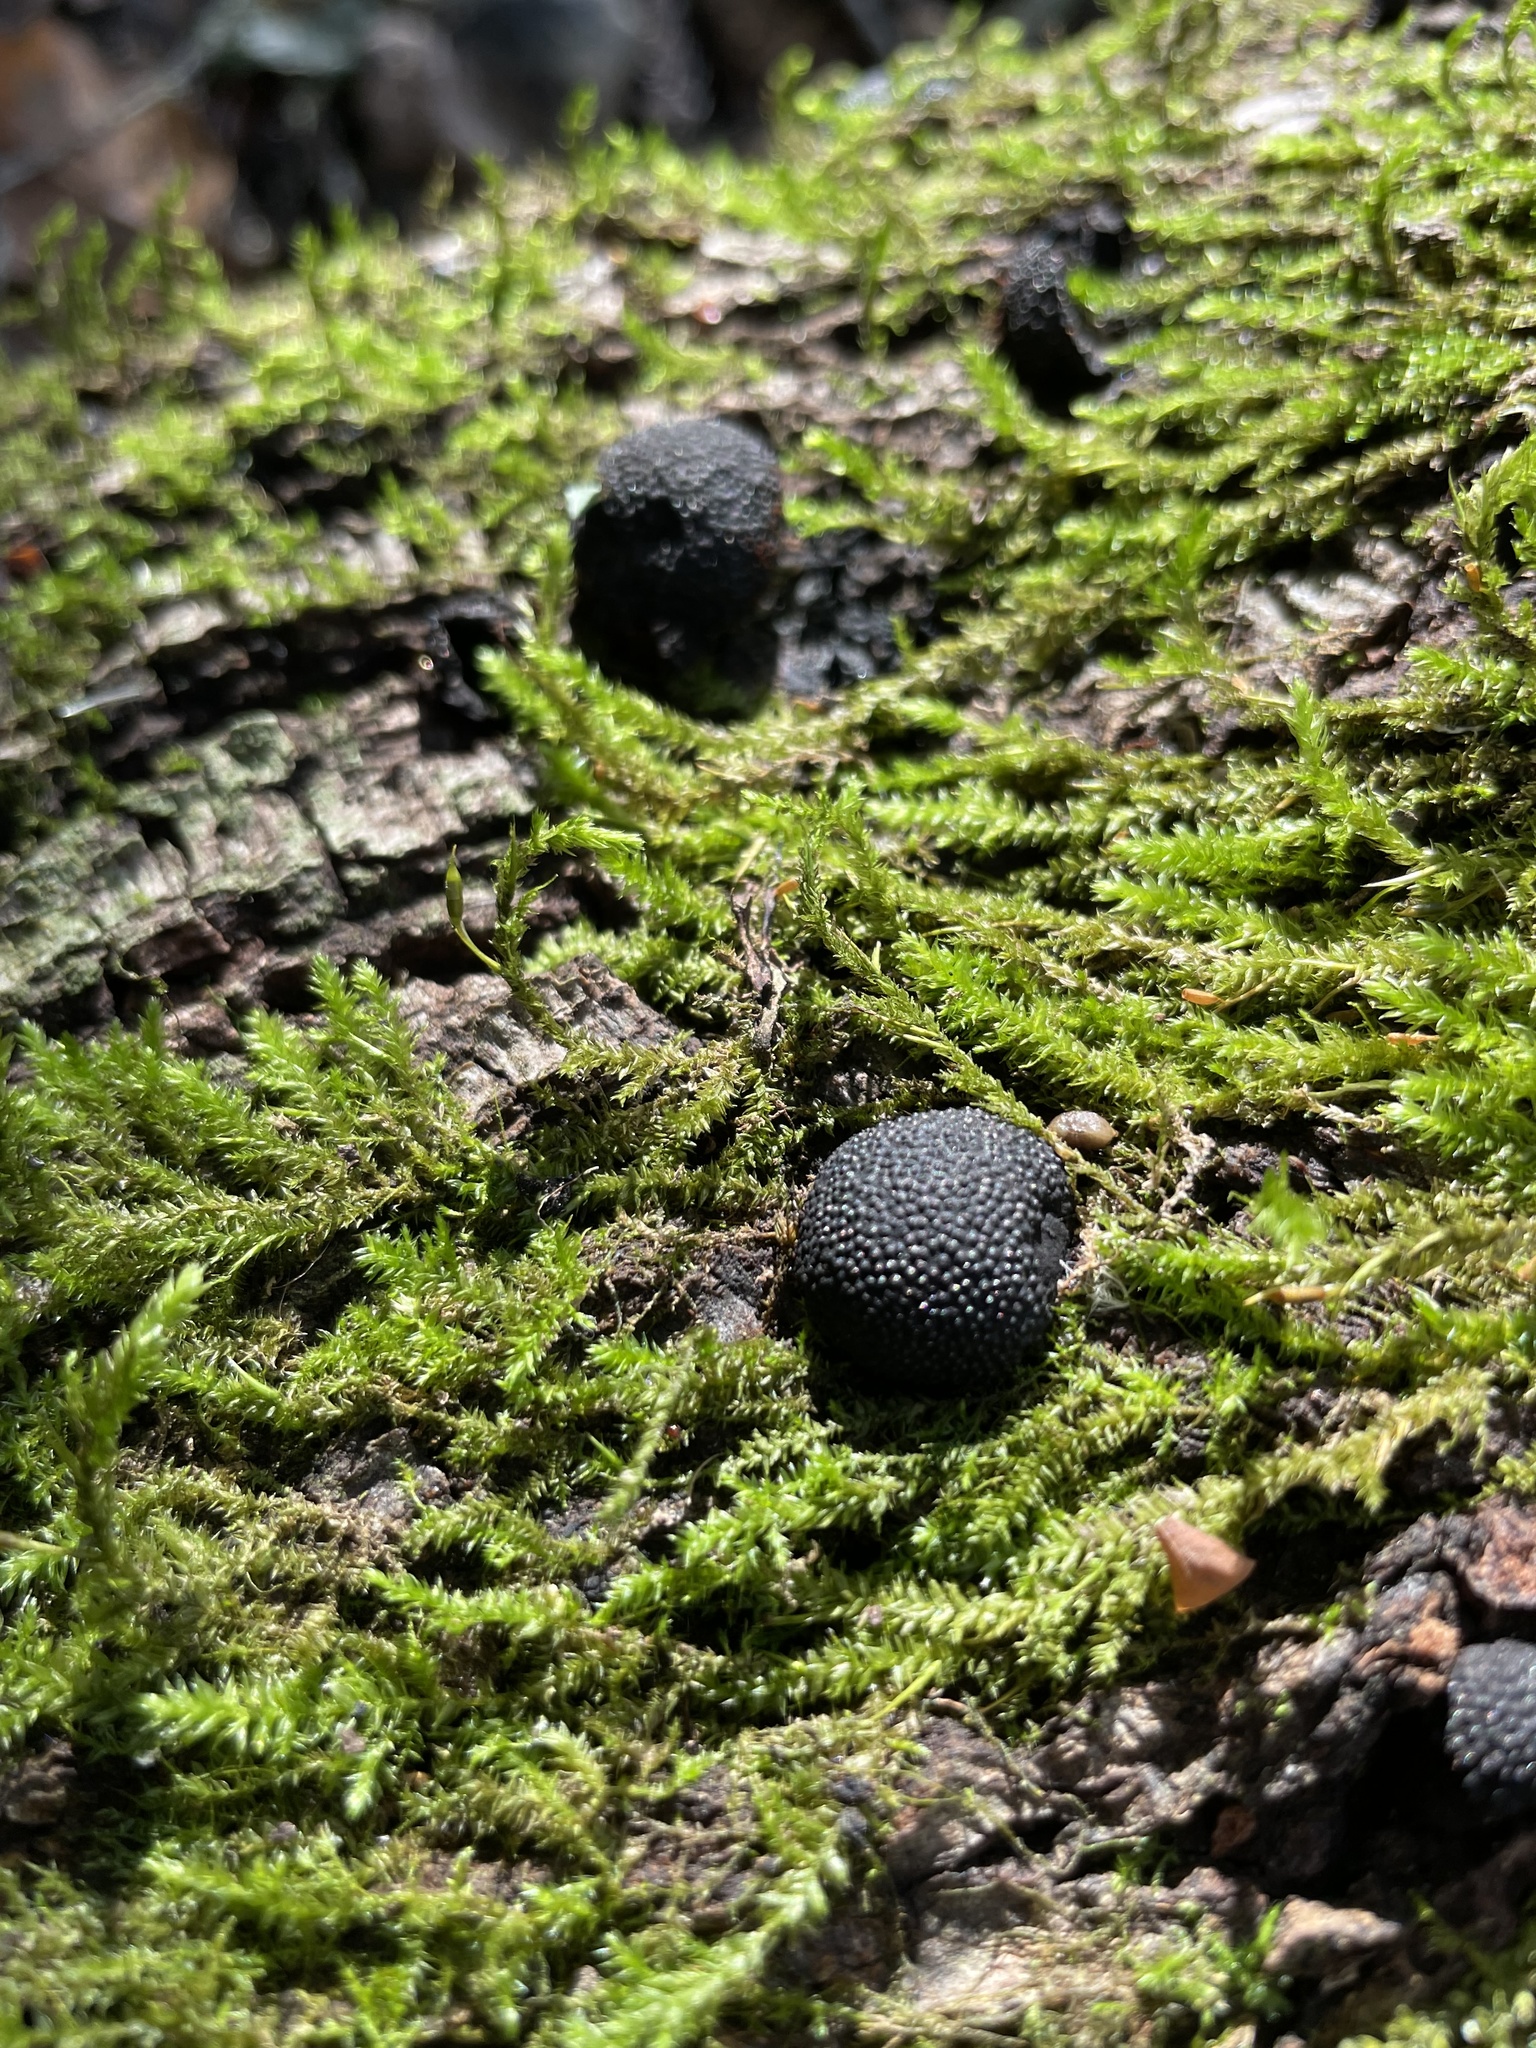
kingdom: Fungi
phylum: Ascomycota
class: Sordariomycetes
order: Xylariales
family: Hypoxylaceae
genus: Annulohypoxylon
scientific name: Annulohypoxylon thouarsianum
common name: Cramp balls
